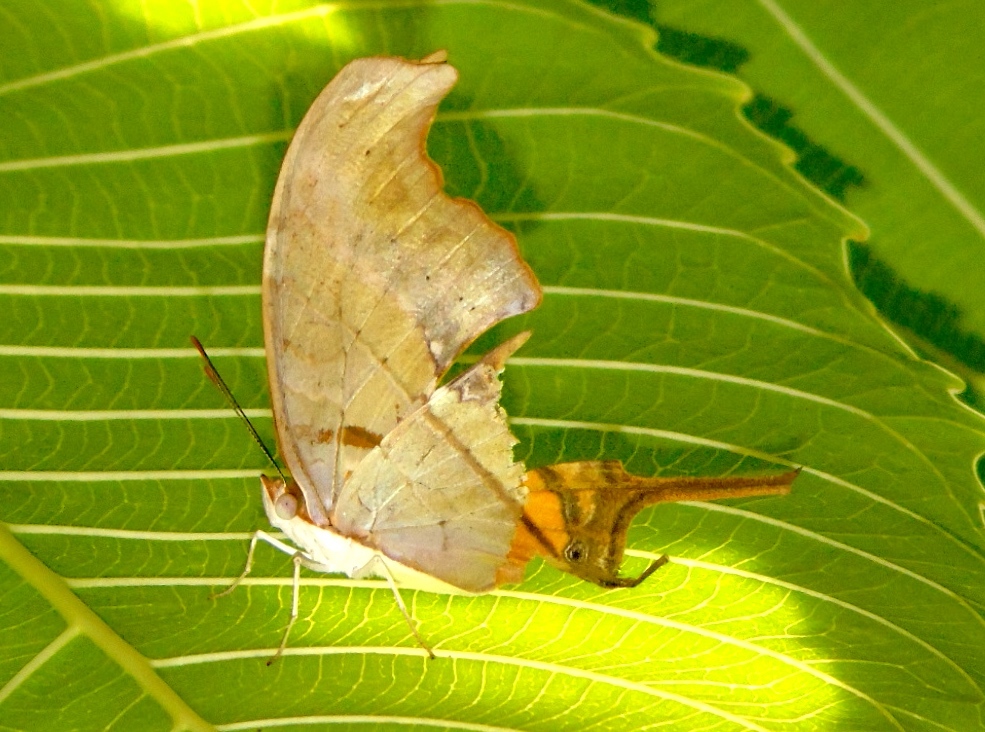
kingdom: Animalia
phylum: Arthropoda
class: Insecta
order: Lepidoptera
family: Nymphalidae
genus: Marpesia
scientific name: Marpesia petreus
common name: Red dagger wing
